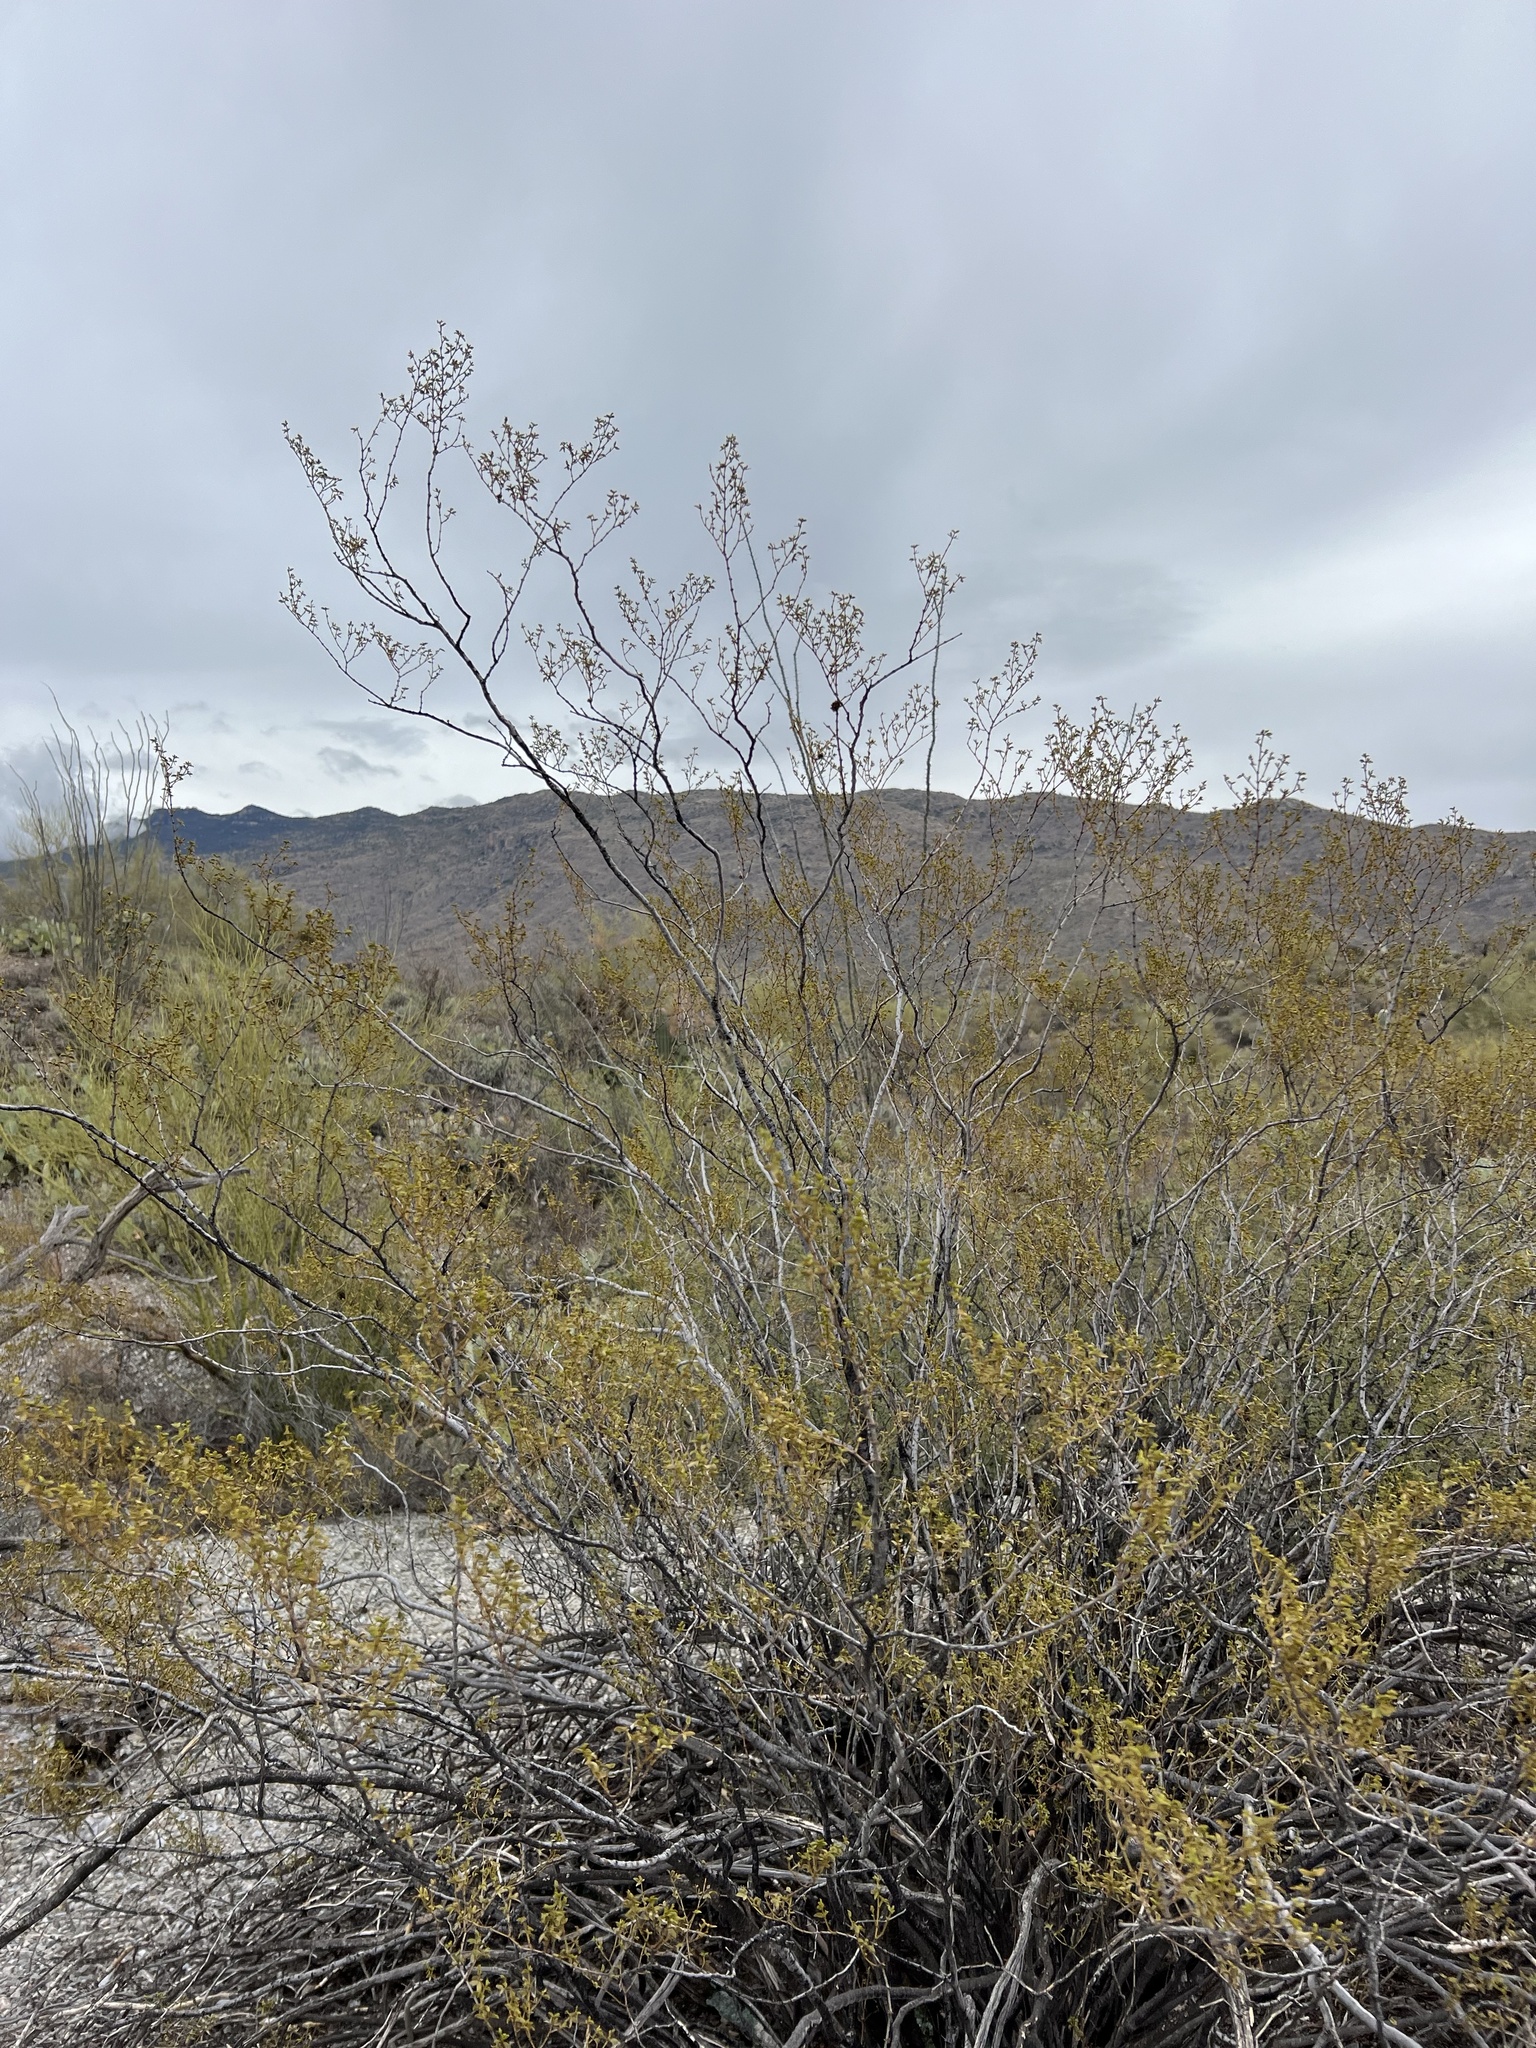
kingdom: Plantae
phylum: Tracheophyta
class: Magnoliopsida
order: Zygophyllales
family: Zygophyllaceae
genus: Larrea
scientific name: Larrea tridentata
